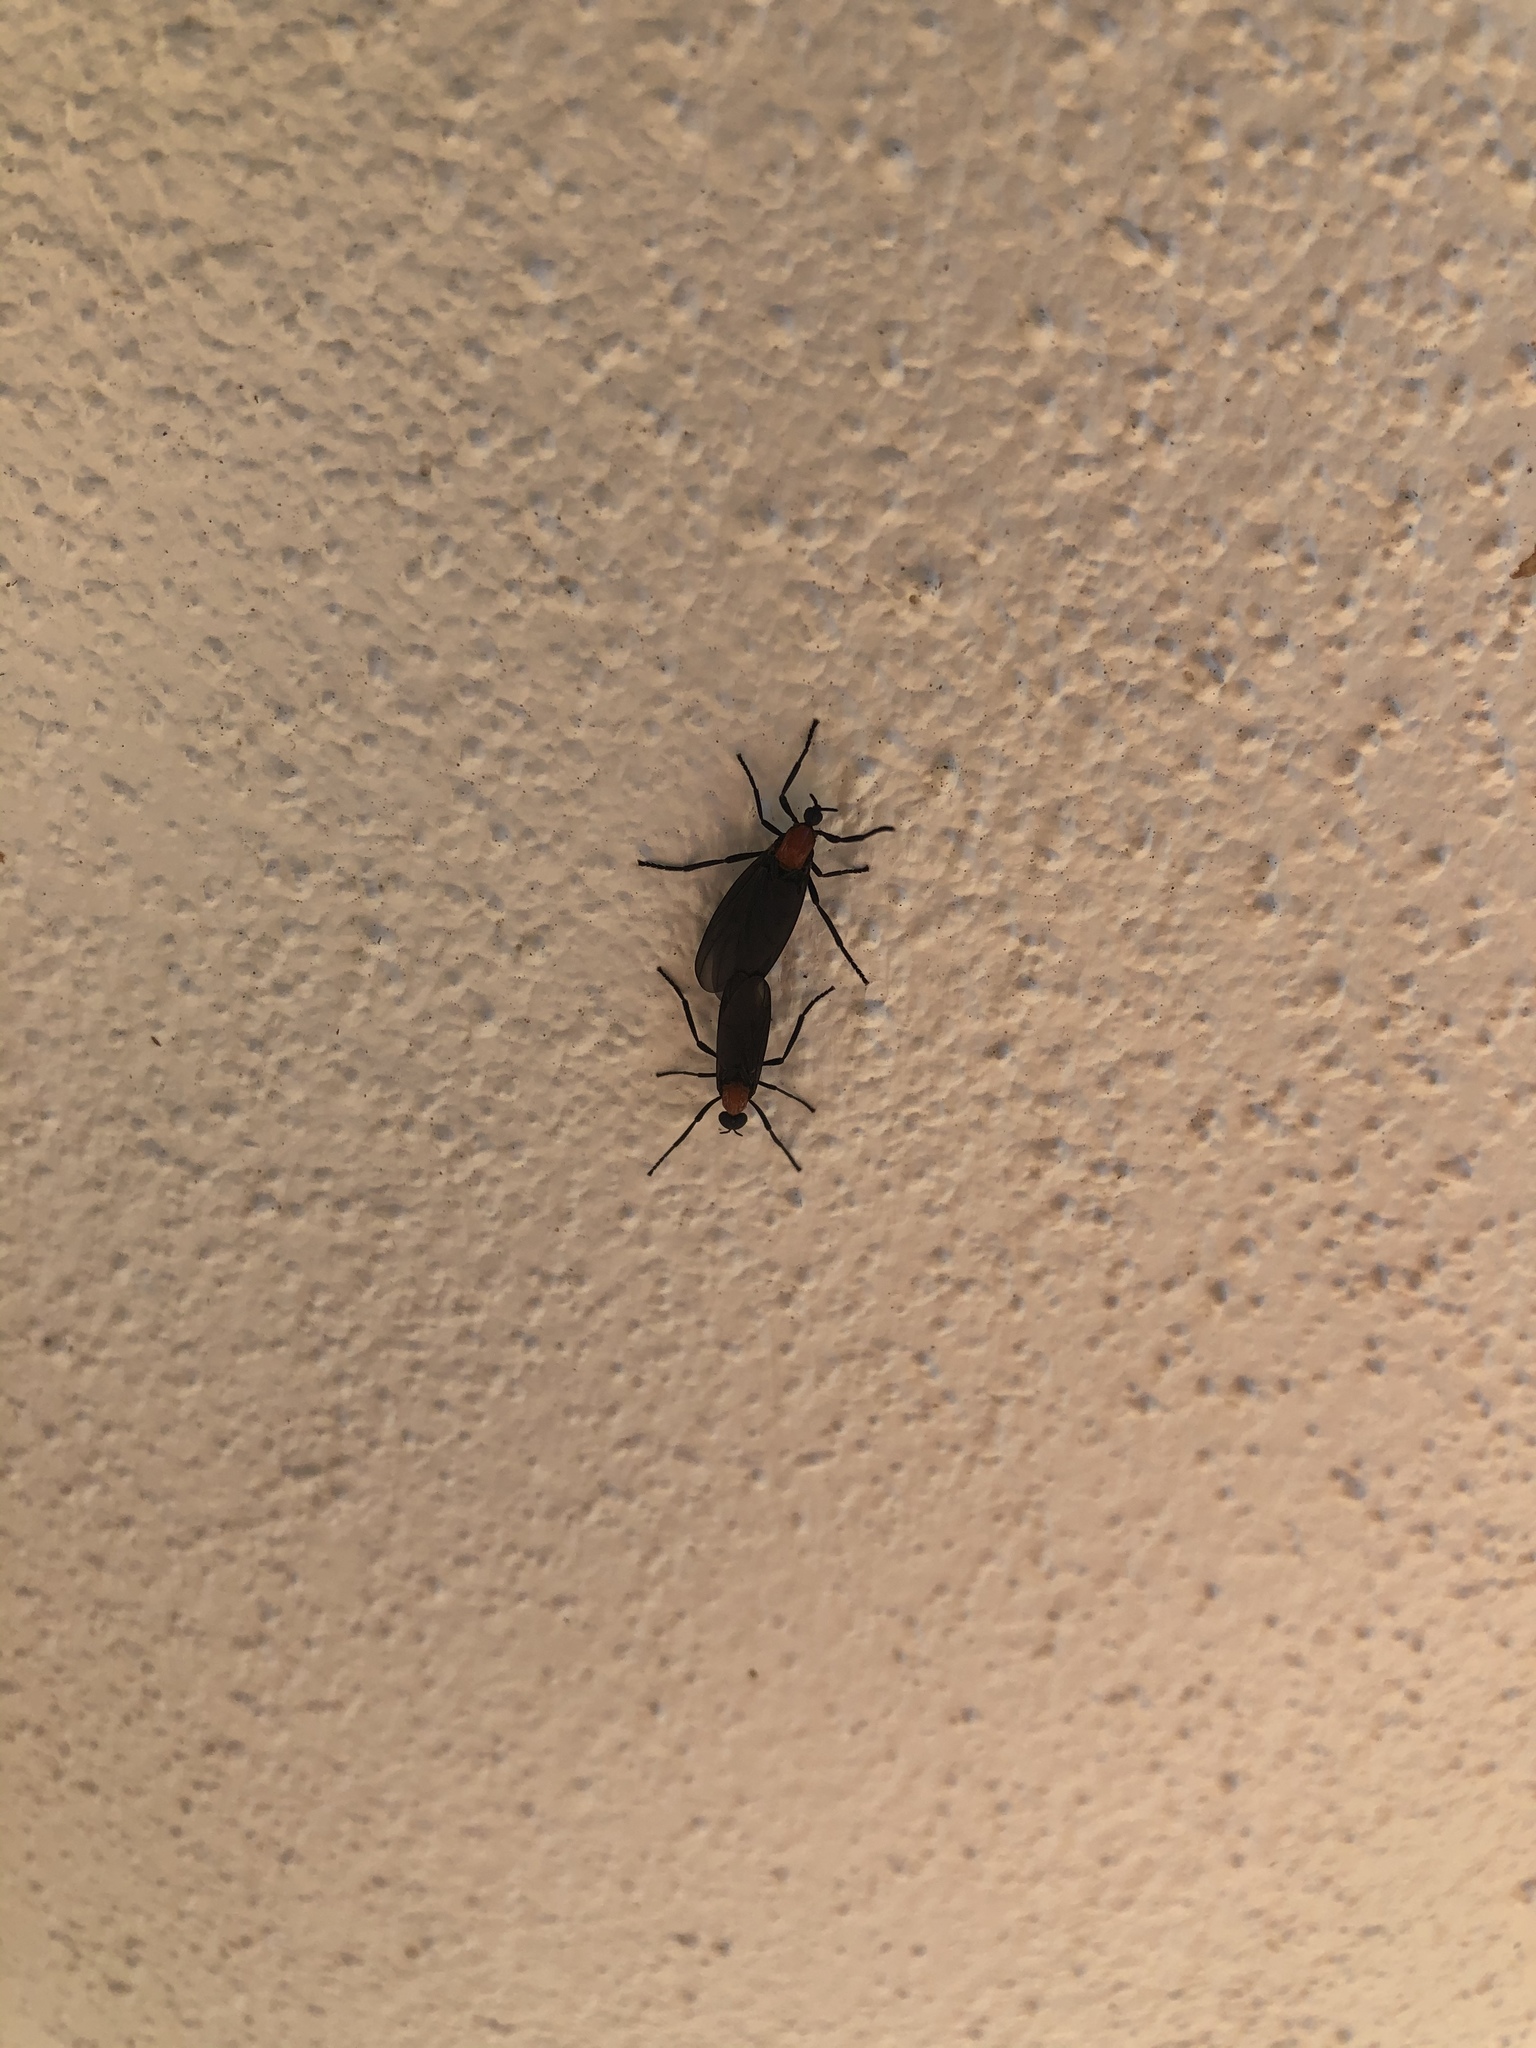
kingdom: Animalia
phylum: Arthropoda
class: Insecta
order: Diptera
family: Bibionidae
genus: Plecia
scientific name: Plecia nearctica
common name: March fly
